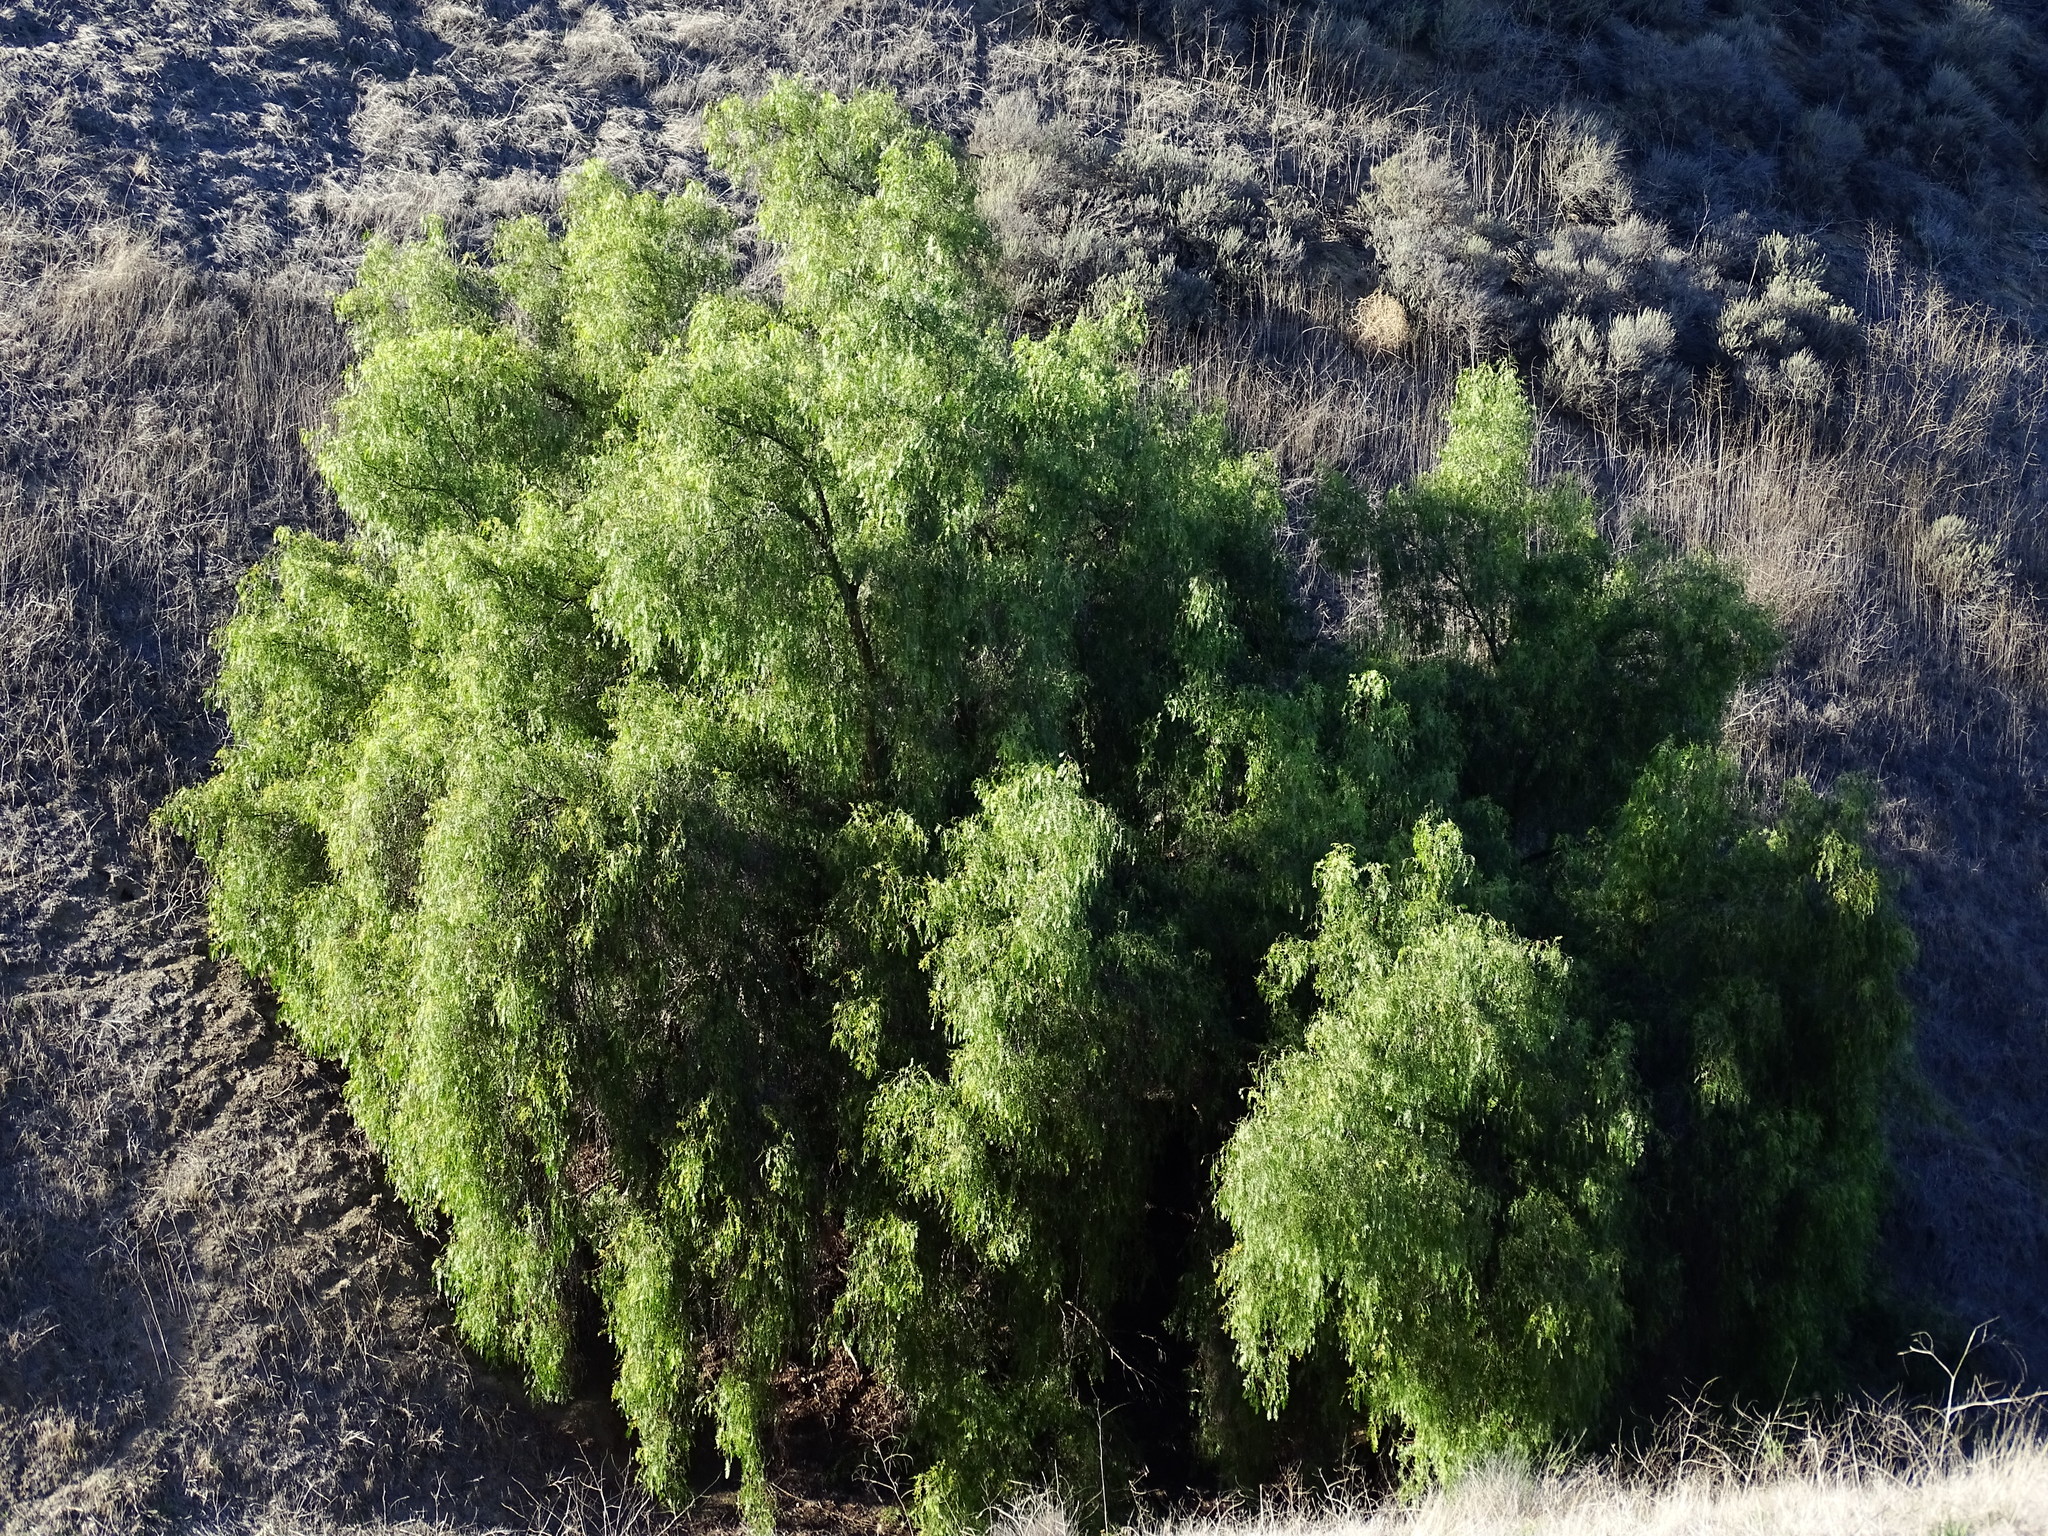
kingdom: Plantae
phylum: Tracheophyta
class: Magnoliopsida
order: Sapindales
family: Anacardiaceae
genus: Schinus
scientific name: Schinus molle
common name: Peruvian peppertree
